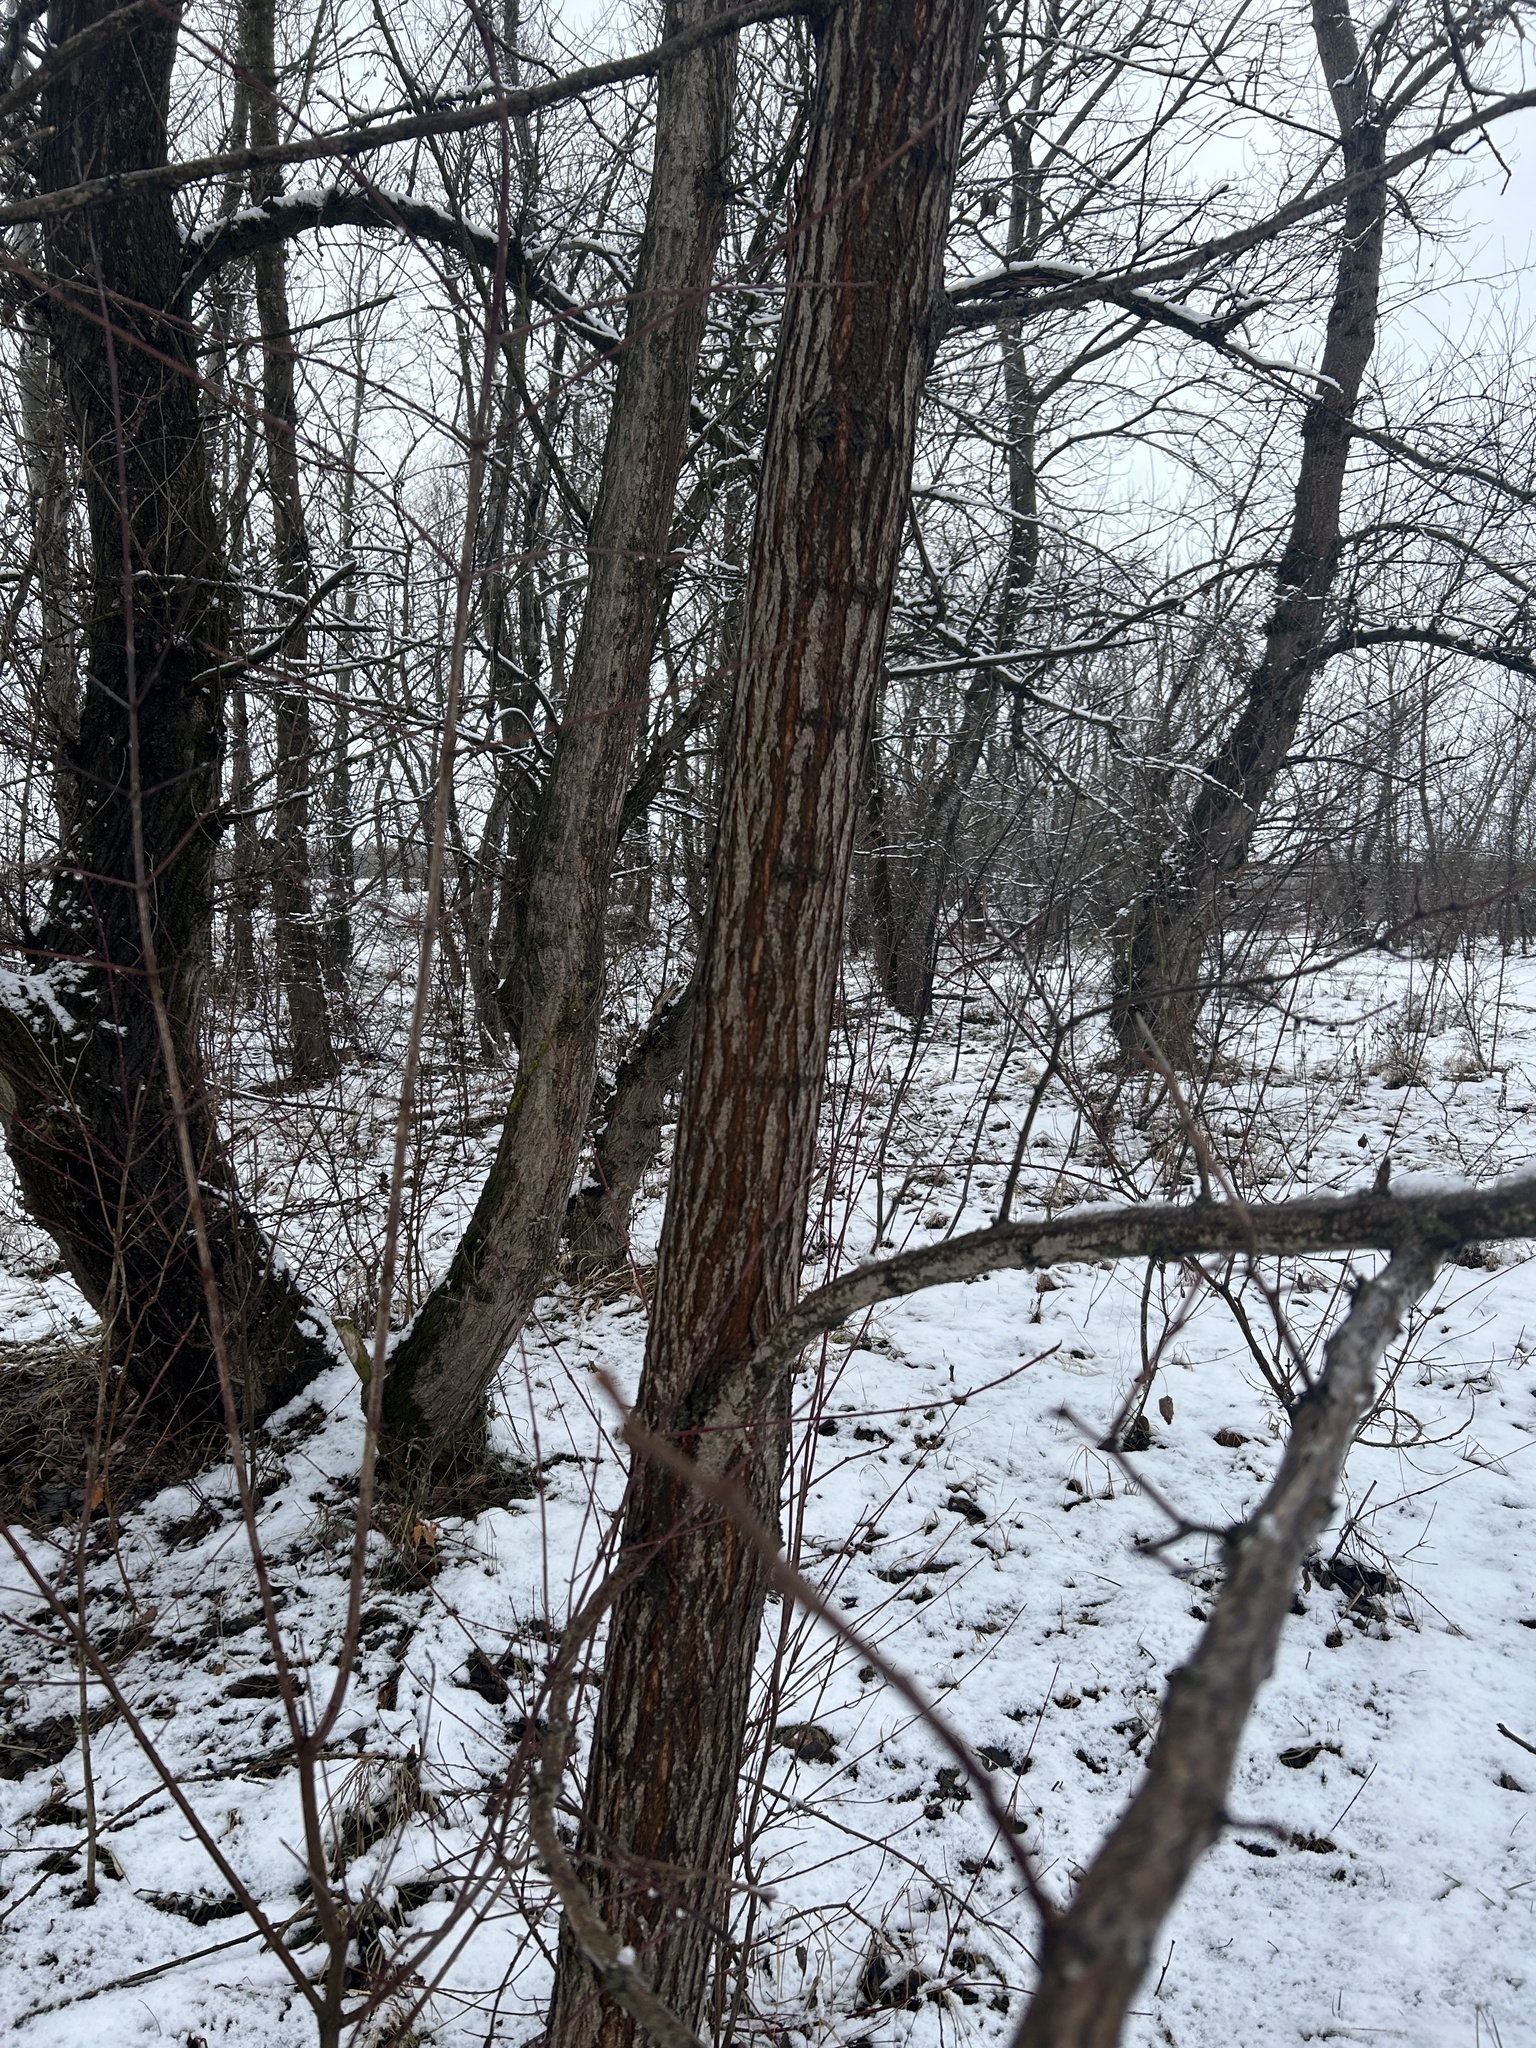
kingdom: Plantae
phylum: Tracheophyta
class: Magnoliopsida
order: Fabales
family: Fabaceae
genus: Robinia
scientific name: Robinia pseudoacacia
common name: Black locust
